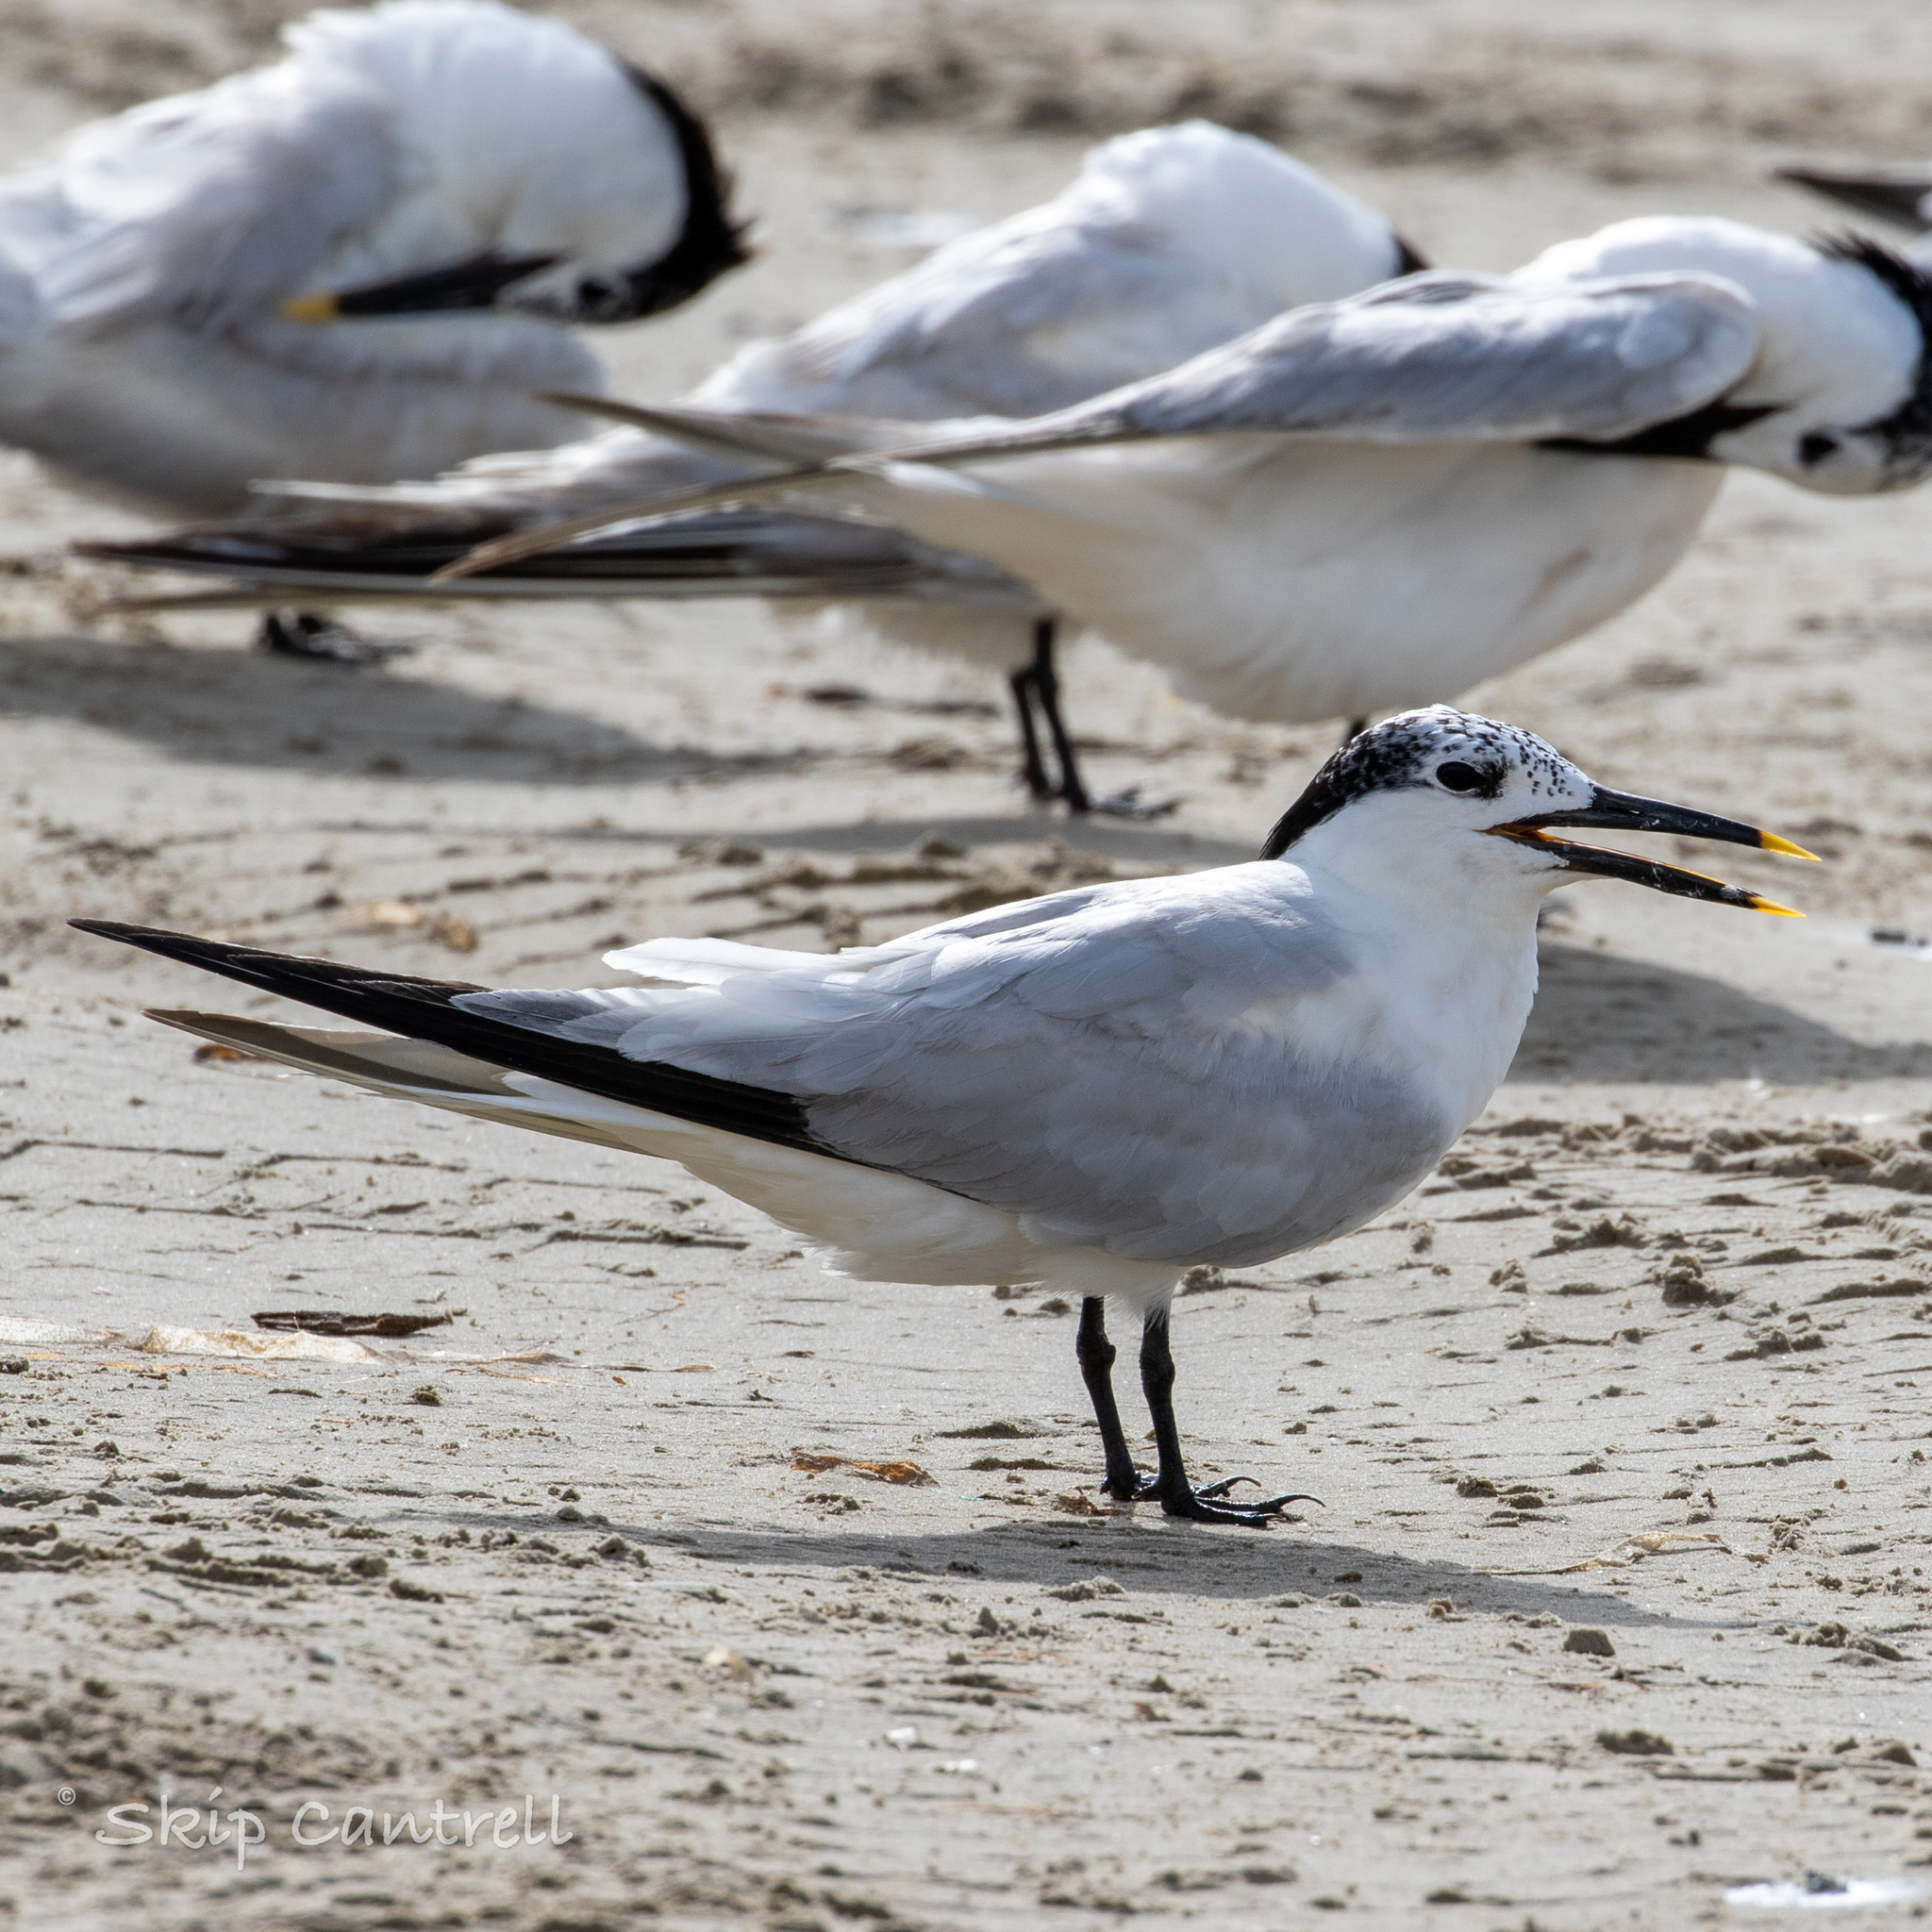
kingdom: Animalia
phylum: Chordata
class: Aves
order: Charadriiformes
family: Laridae
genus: Thalasseus
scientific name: Thalasseus sandvicensis
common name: Sandwich tern
